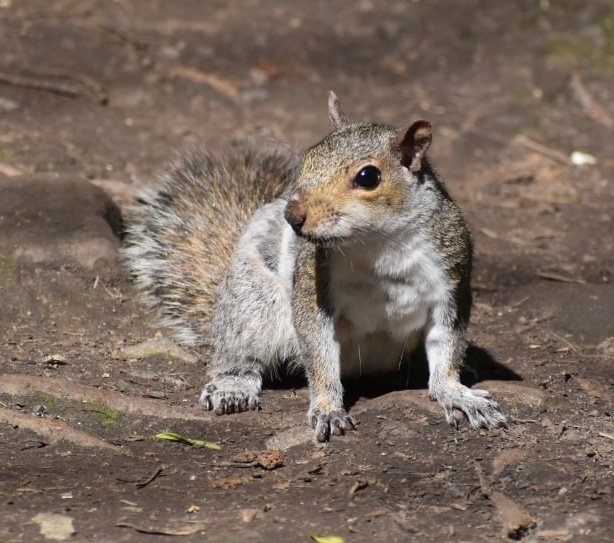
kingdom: Animalia
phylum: Chordata
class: Mammalia
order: Rodentia
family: Sciuridae
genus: Sciurus
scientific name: Sciurus carolinensis
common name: Eastern gray squirrel
